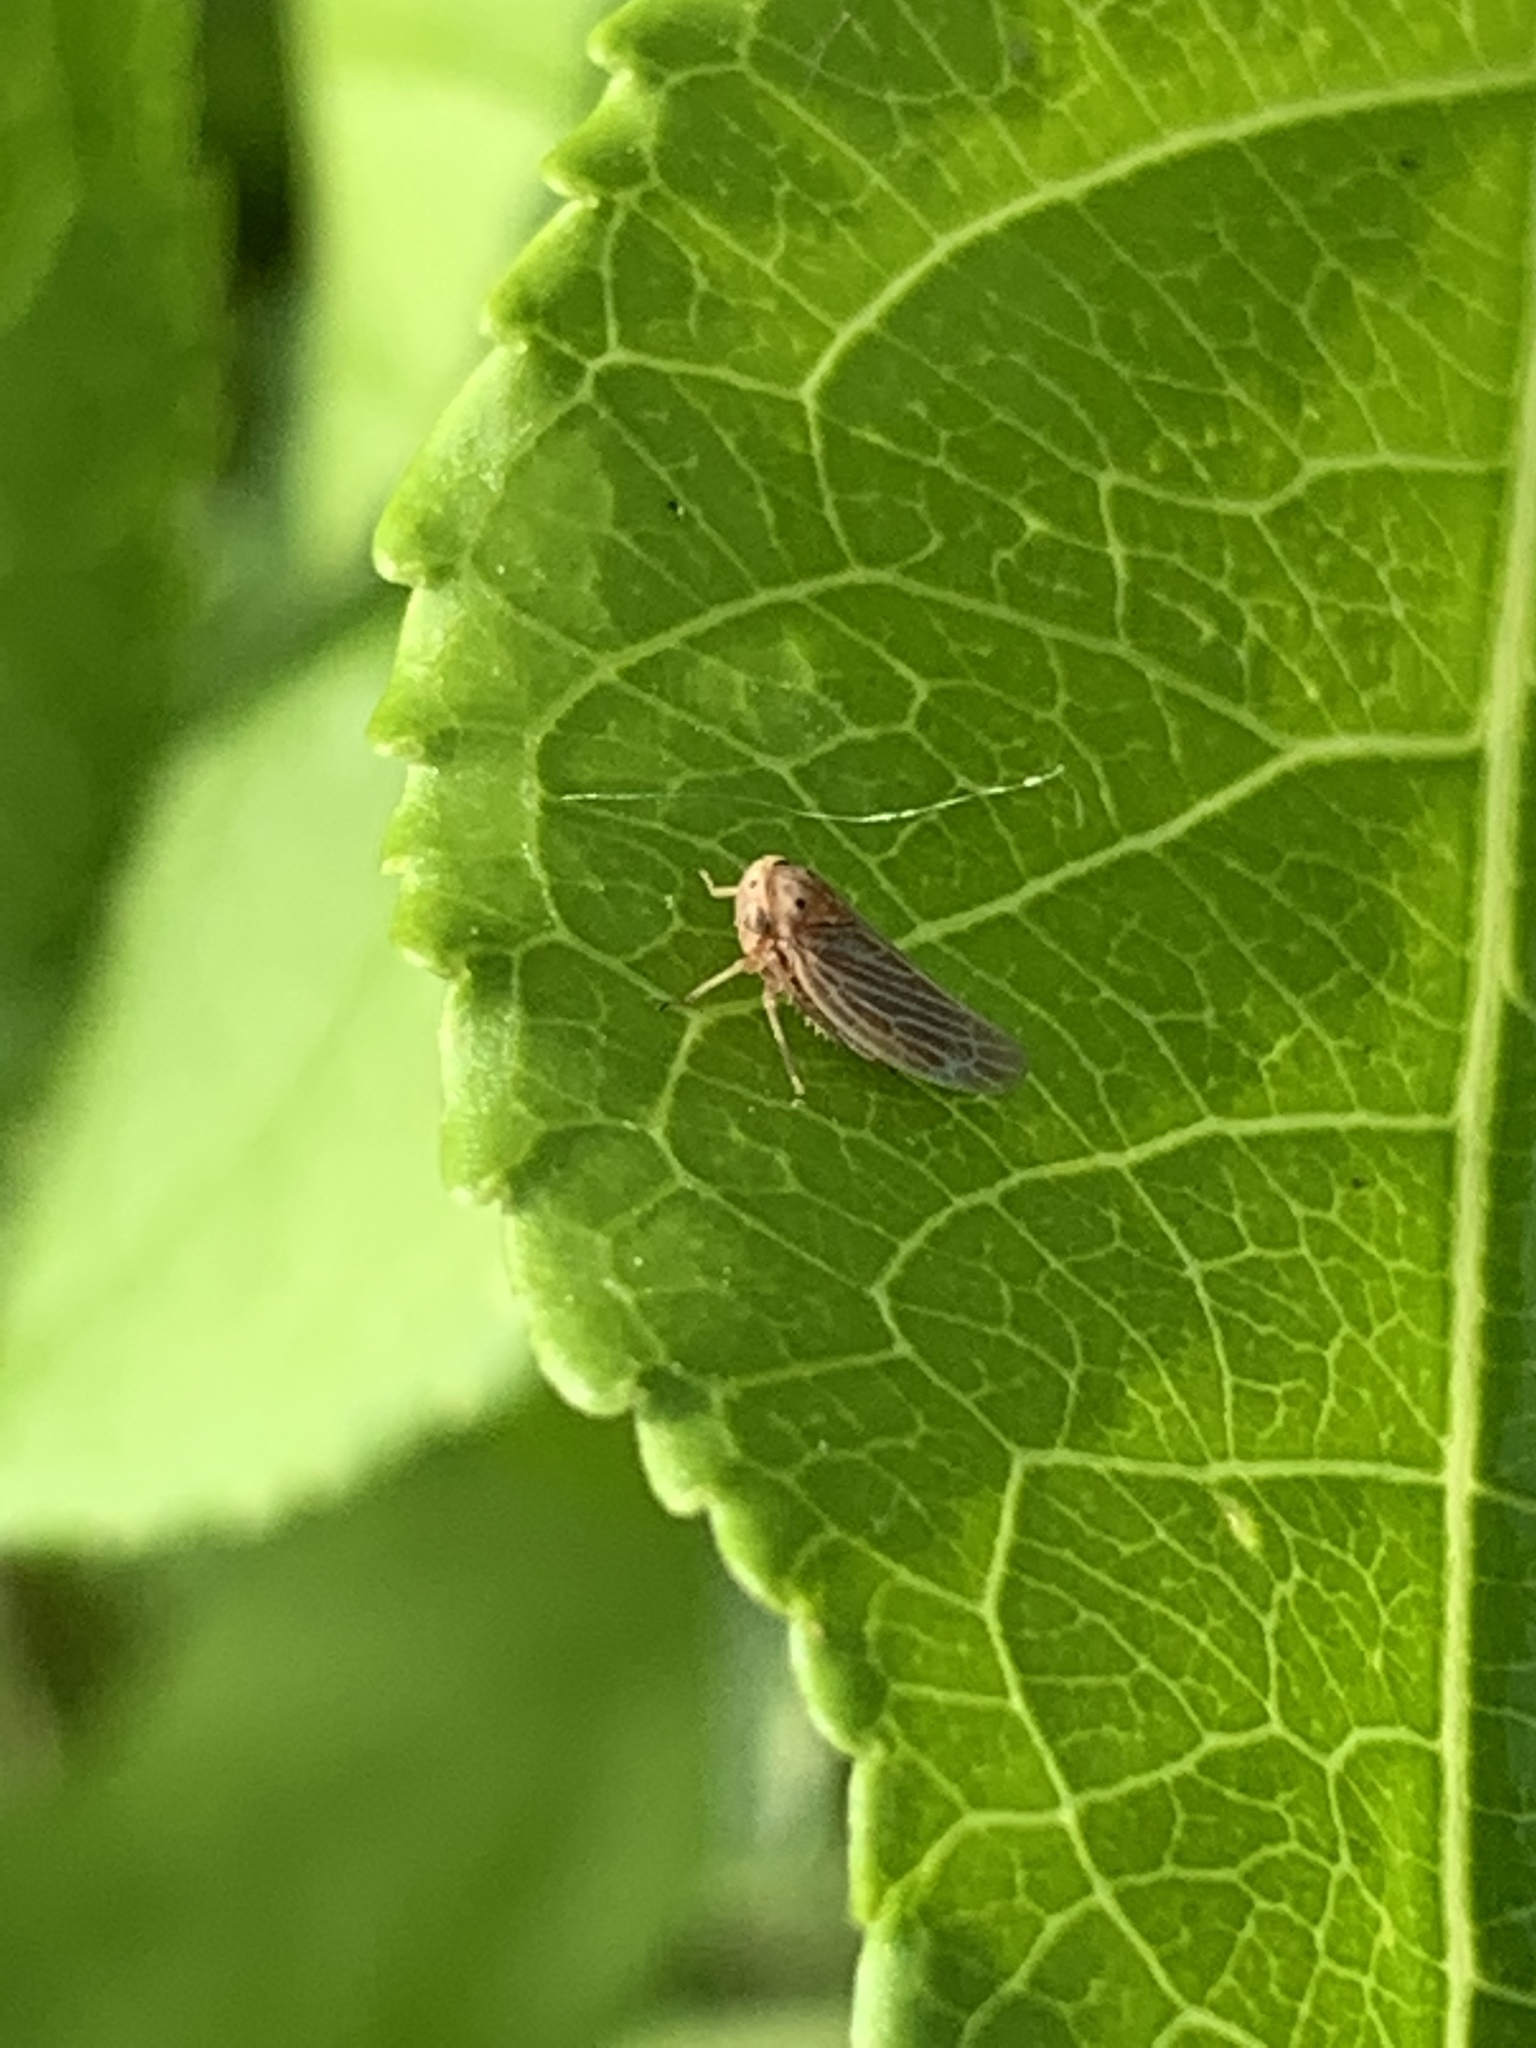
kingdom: Animalia
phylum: Arthropoda
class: Insecta
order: Hemiptera
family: Cicadellidae
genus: Agallia
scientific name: Agallia constricta
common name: The constricted leafhopper
